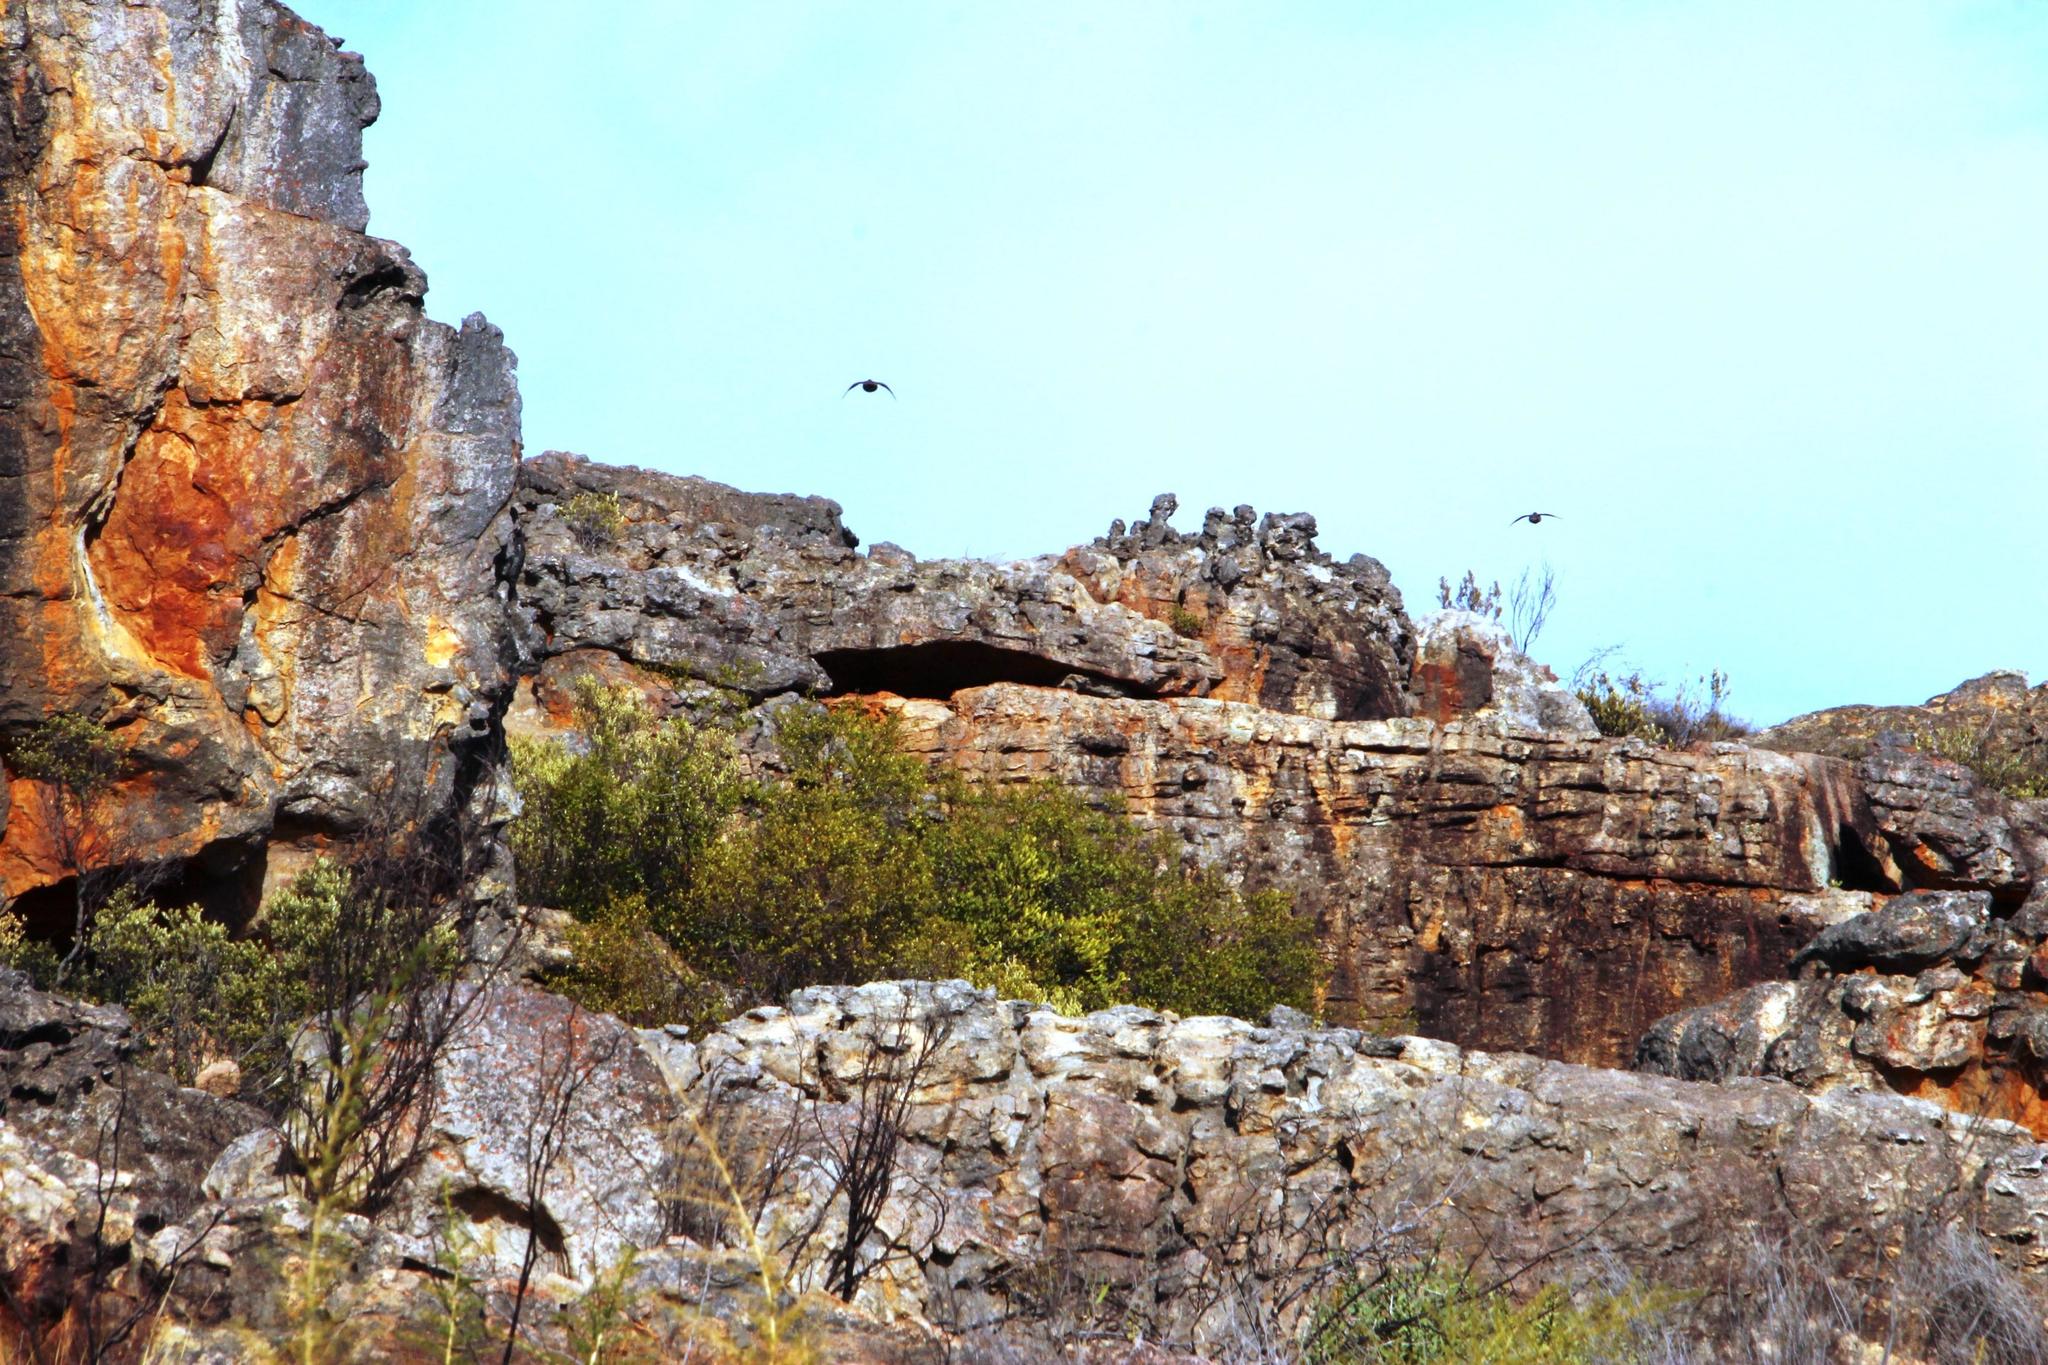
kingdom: Animalia
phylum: Chordata
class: Aves
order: Galliformes
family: Phasianidae
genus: Pternistis
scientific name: Pternistis capensis
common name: Cape spurfowl
